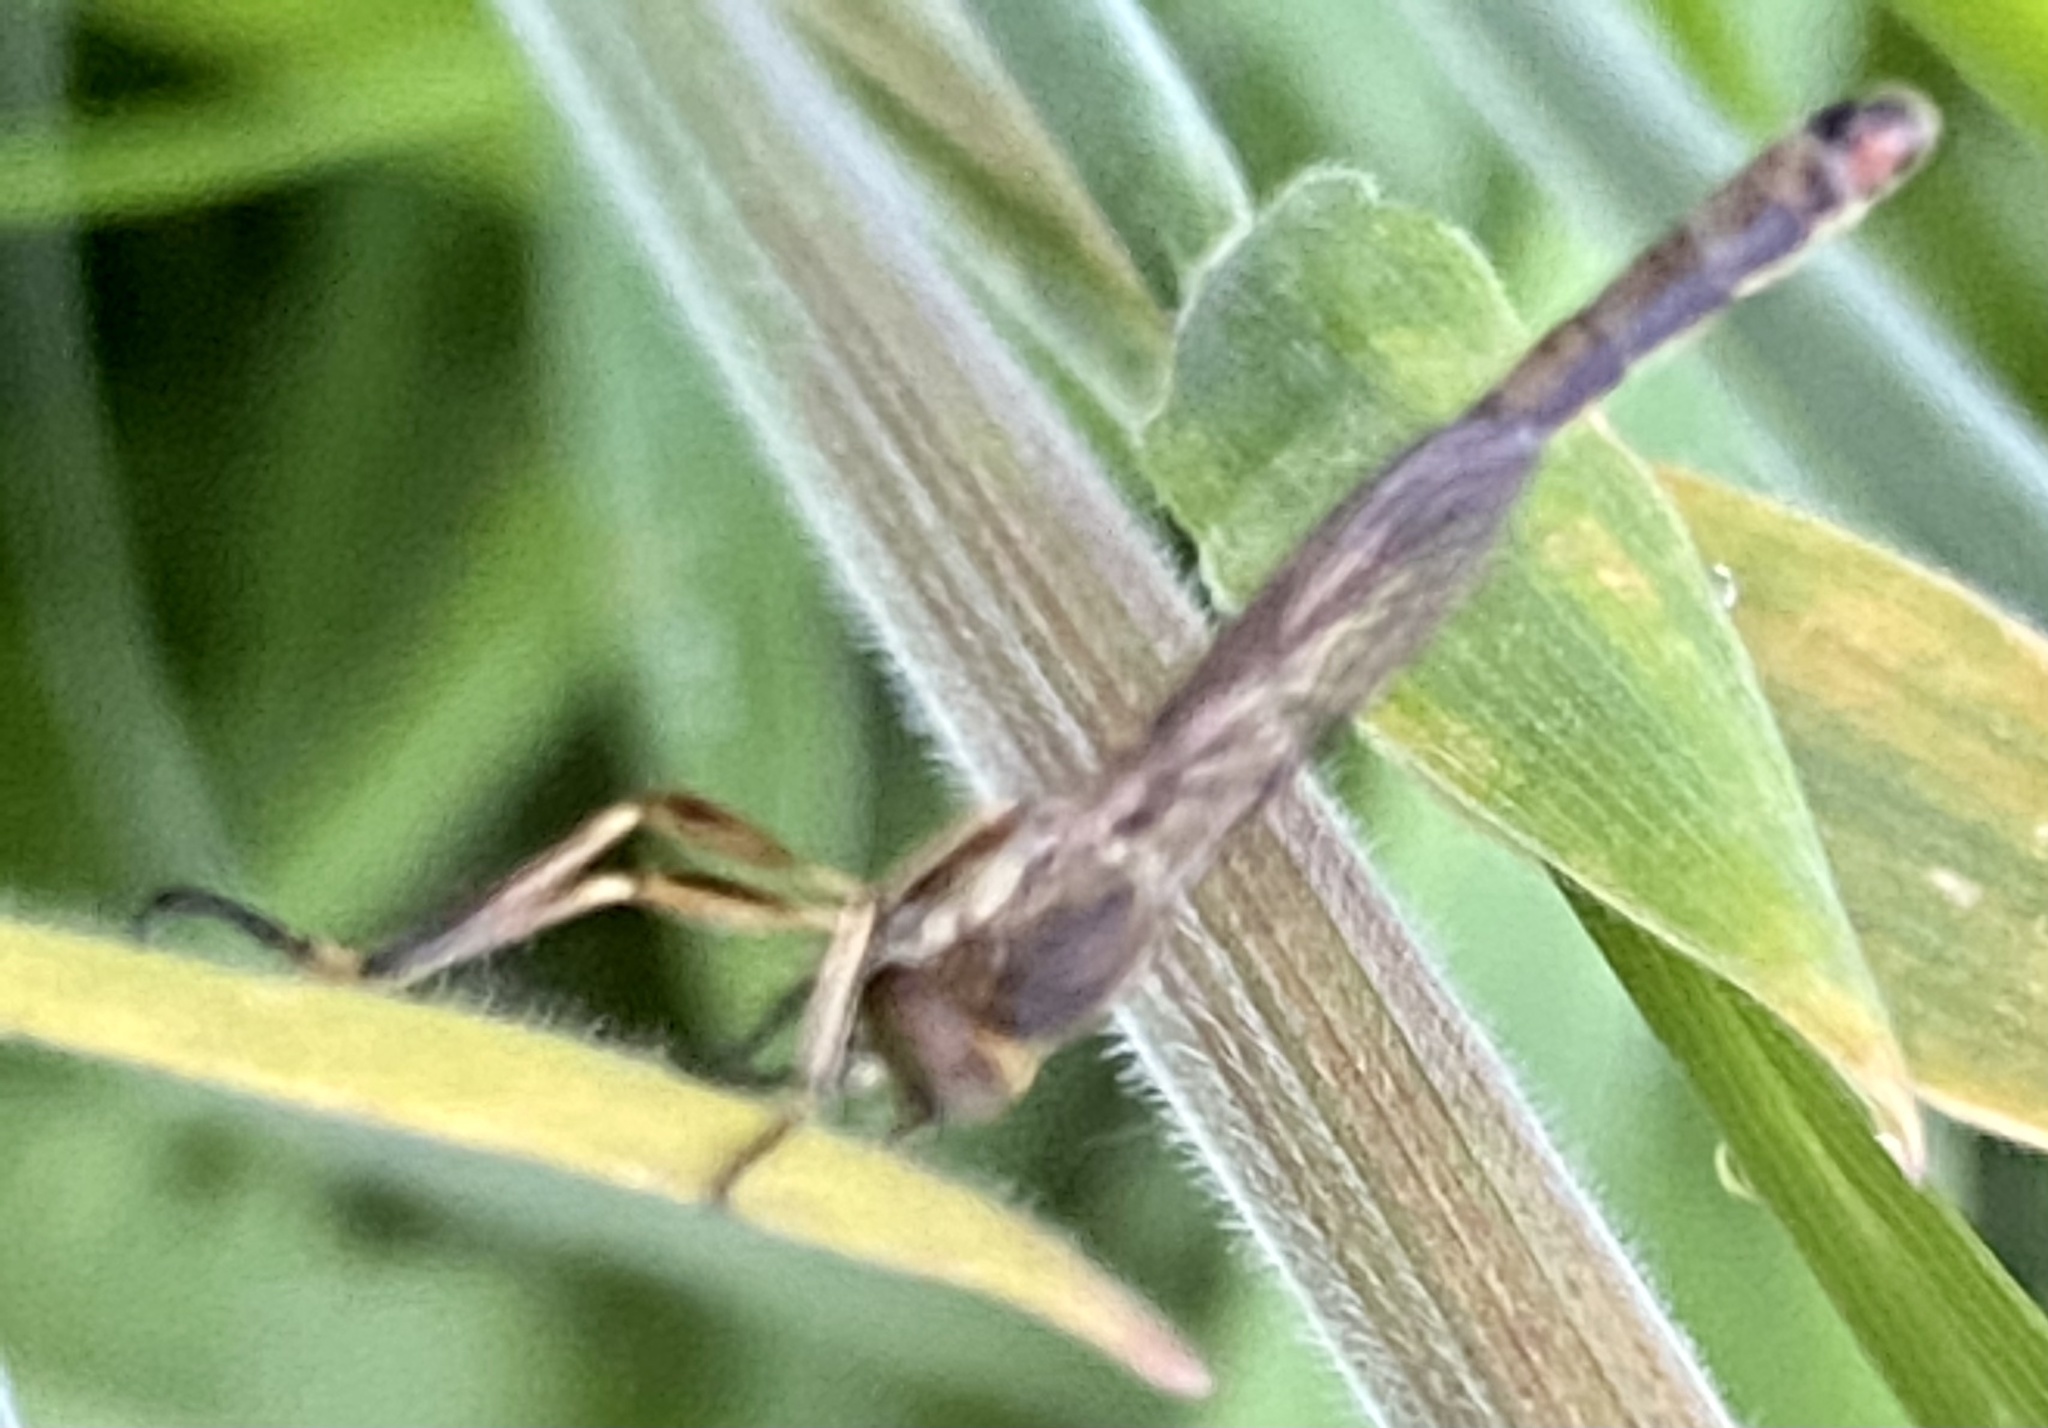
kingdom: Animalia
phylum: Arthropoda
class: Insecta
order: Diptera
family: Asilidae
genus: Leptogaster
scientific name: Leptogaster cylindrica
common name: Striped slender robberfly
